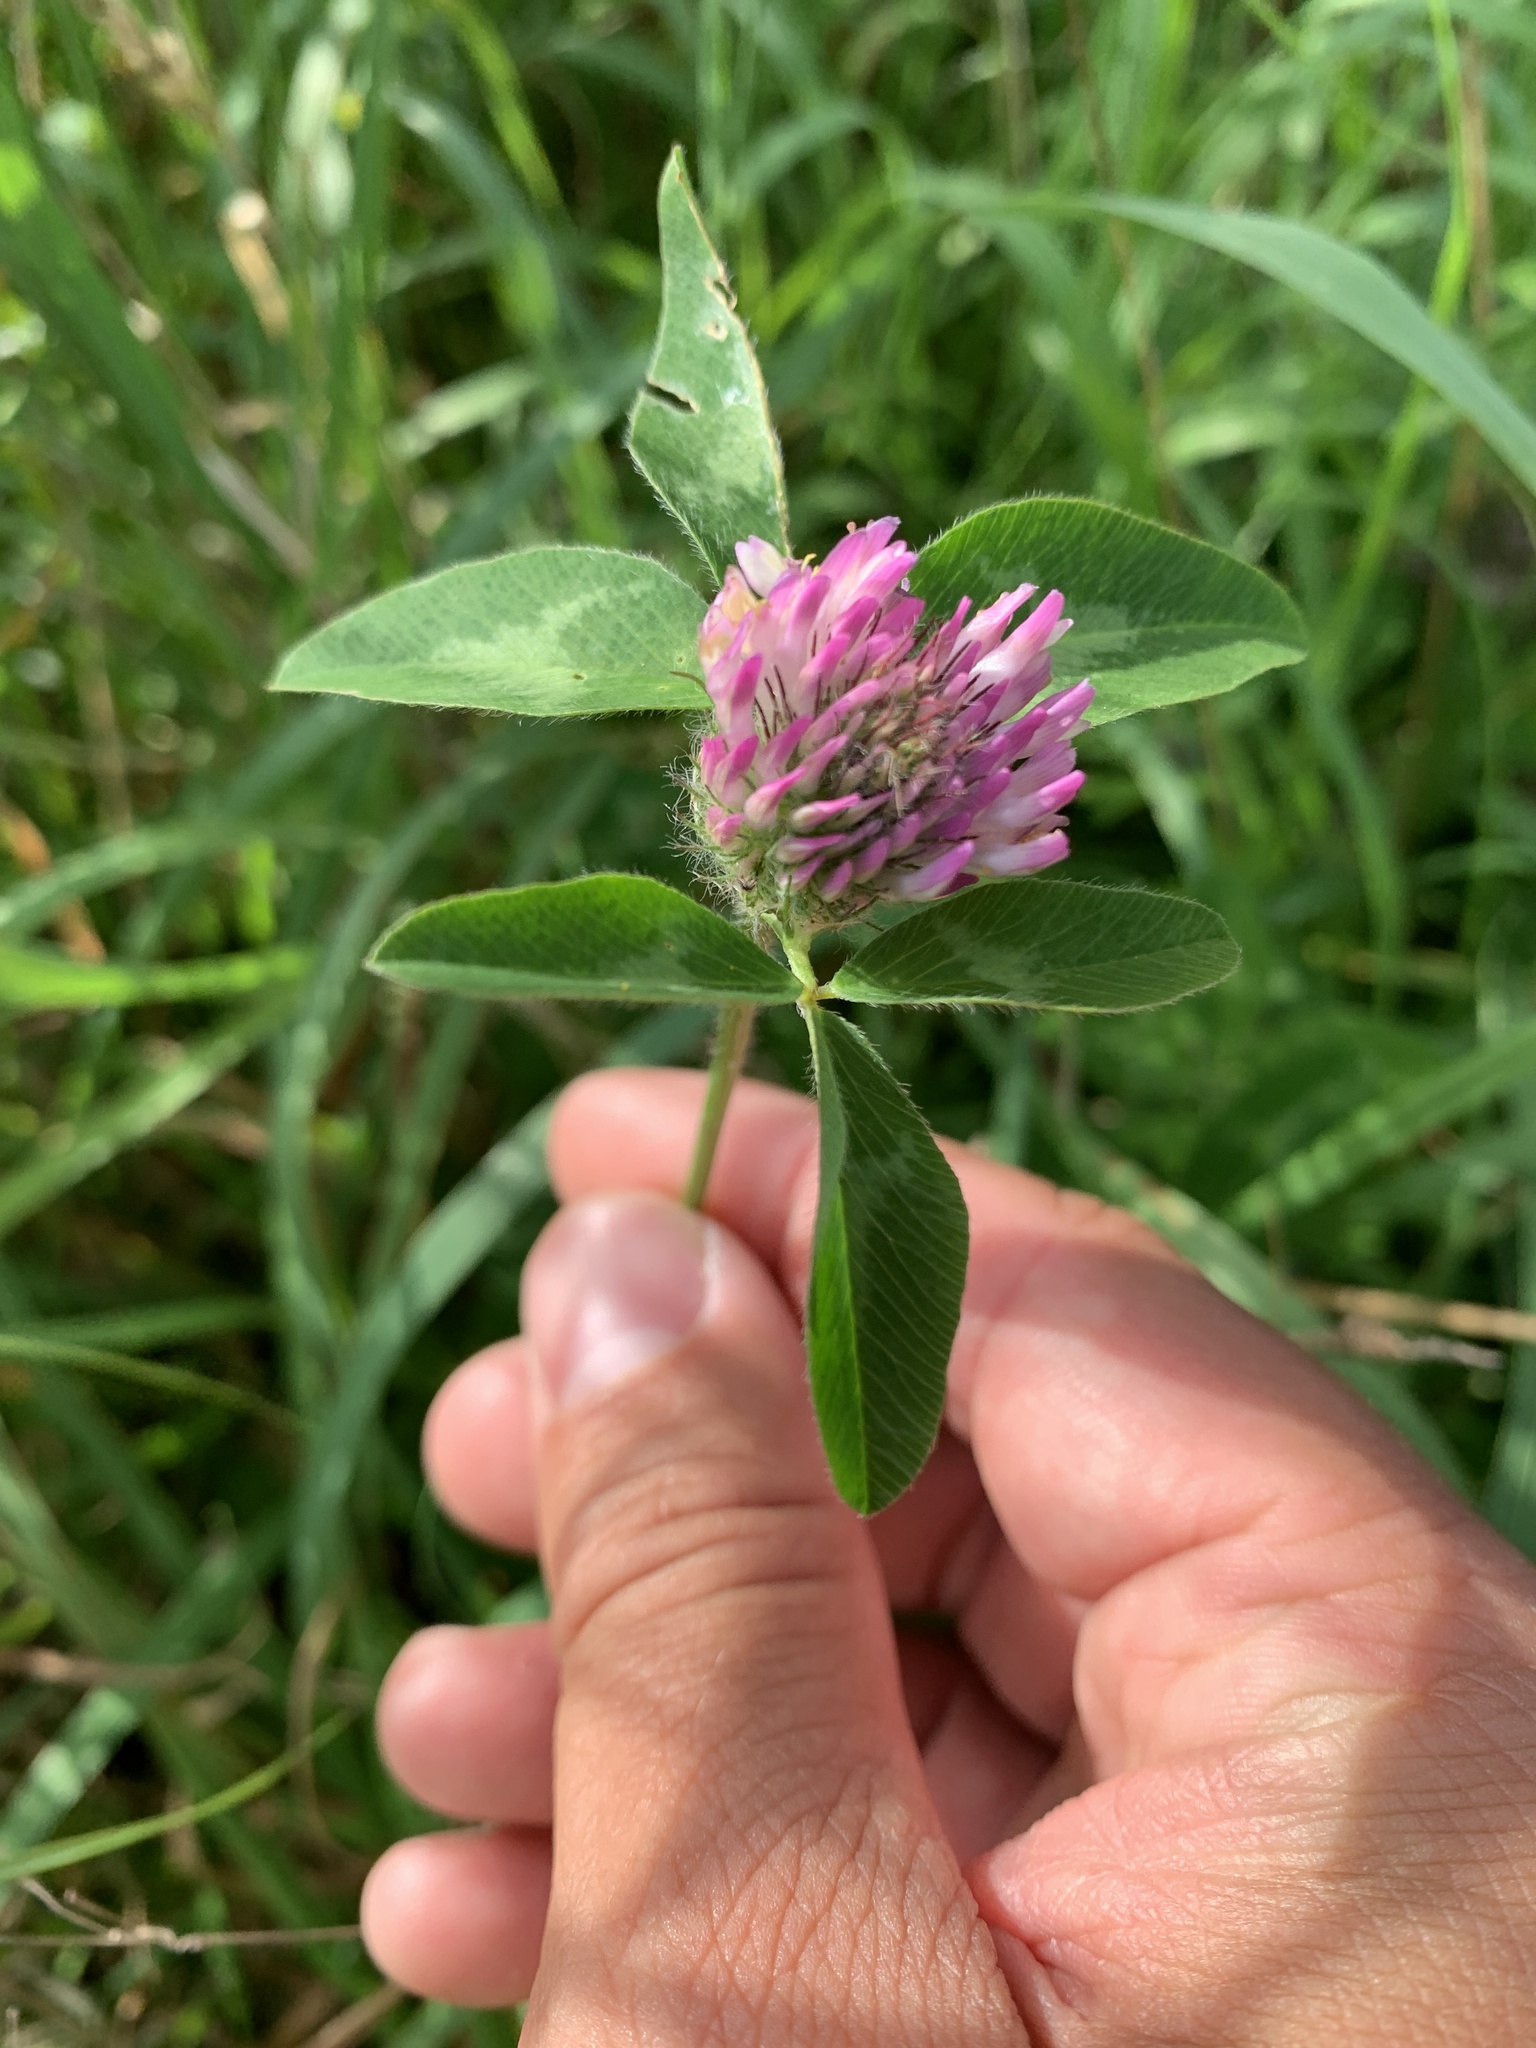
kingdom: Plantae
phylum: Tracheophyta
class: Magnoliopsida
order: Fabales
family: Fabaceae
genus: Trifolium
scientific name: Trifolium pratense
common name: Red clover
